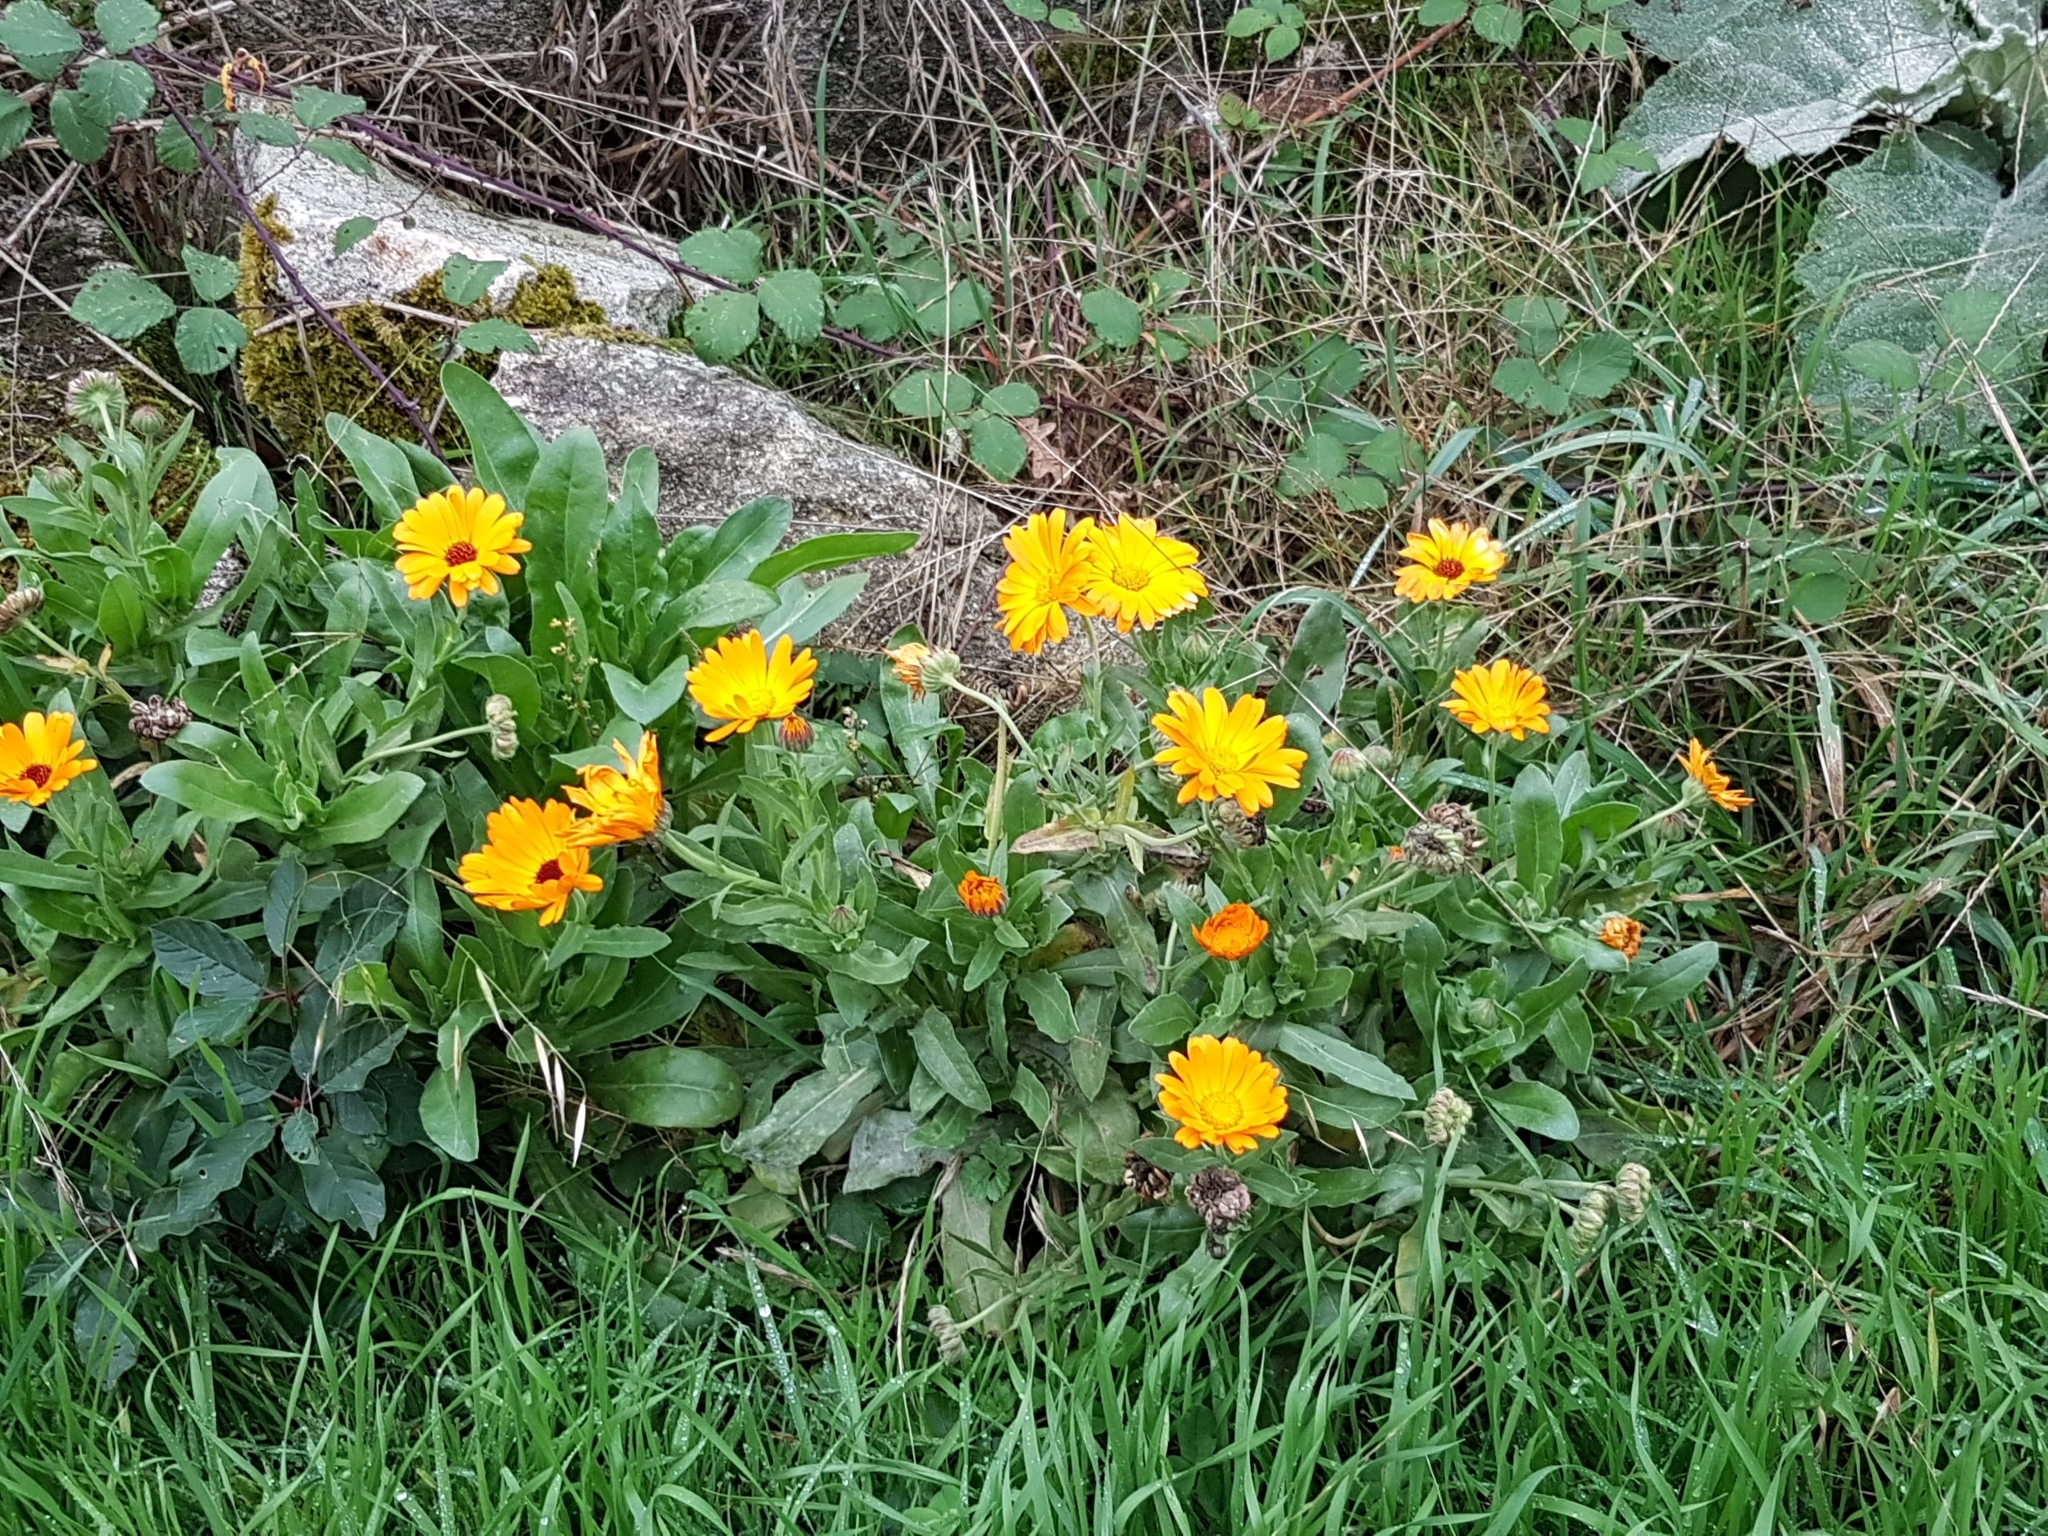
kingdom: Plantae
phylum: Tracheophyta
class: Magnoliopsida
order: Asterales
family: Asteraceae
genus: Calendula
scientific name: Calendula officinalis
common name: Pot marigold
